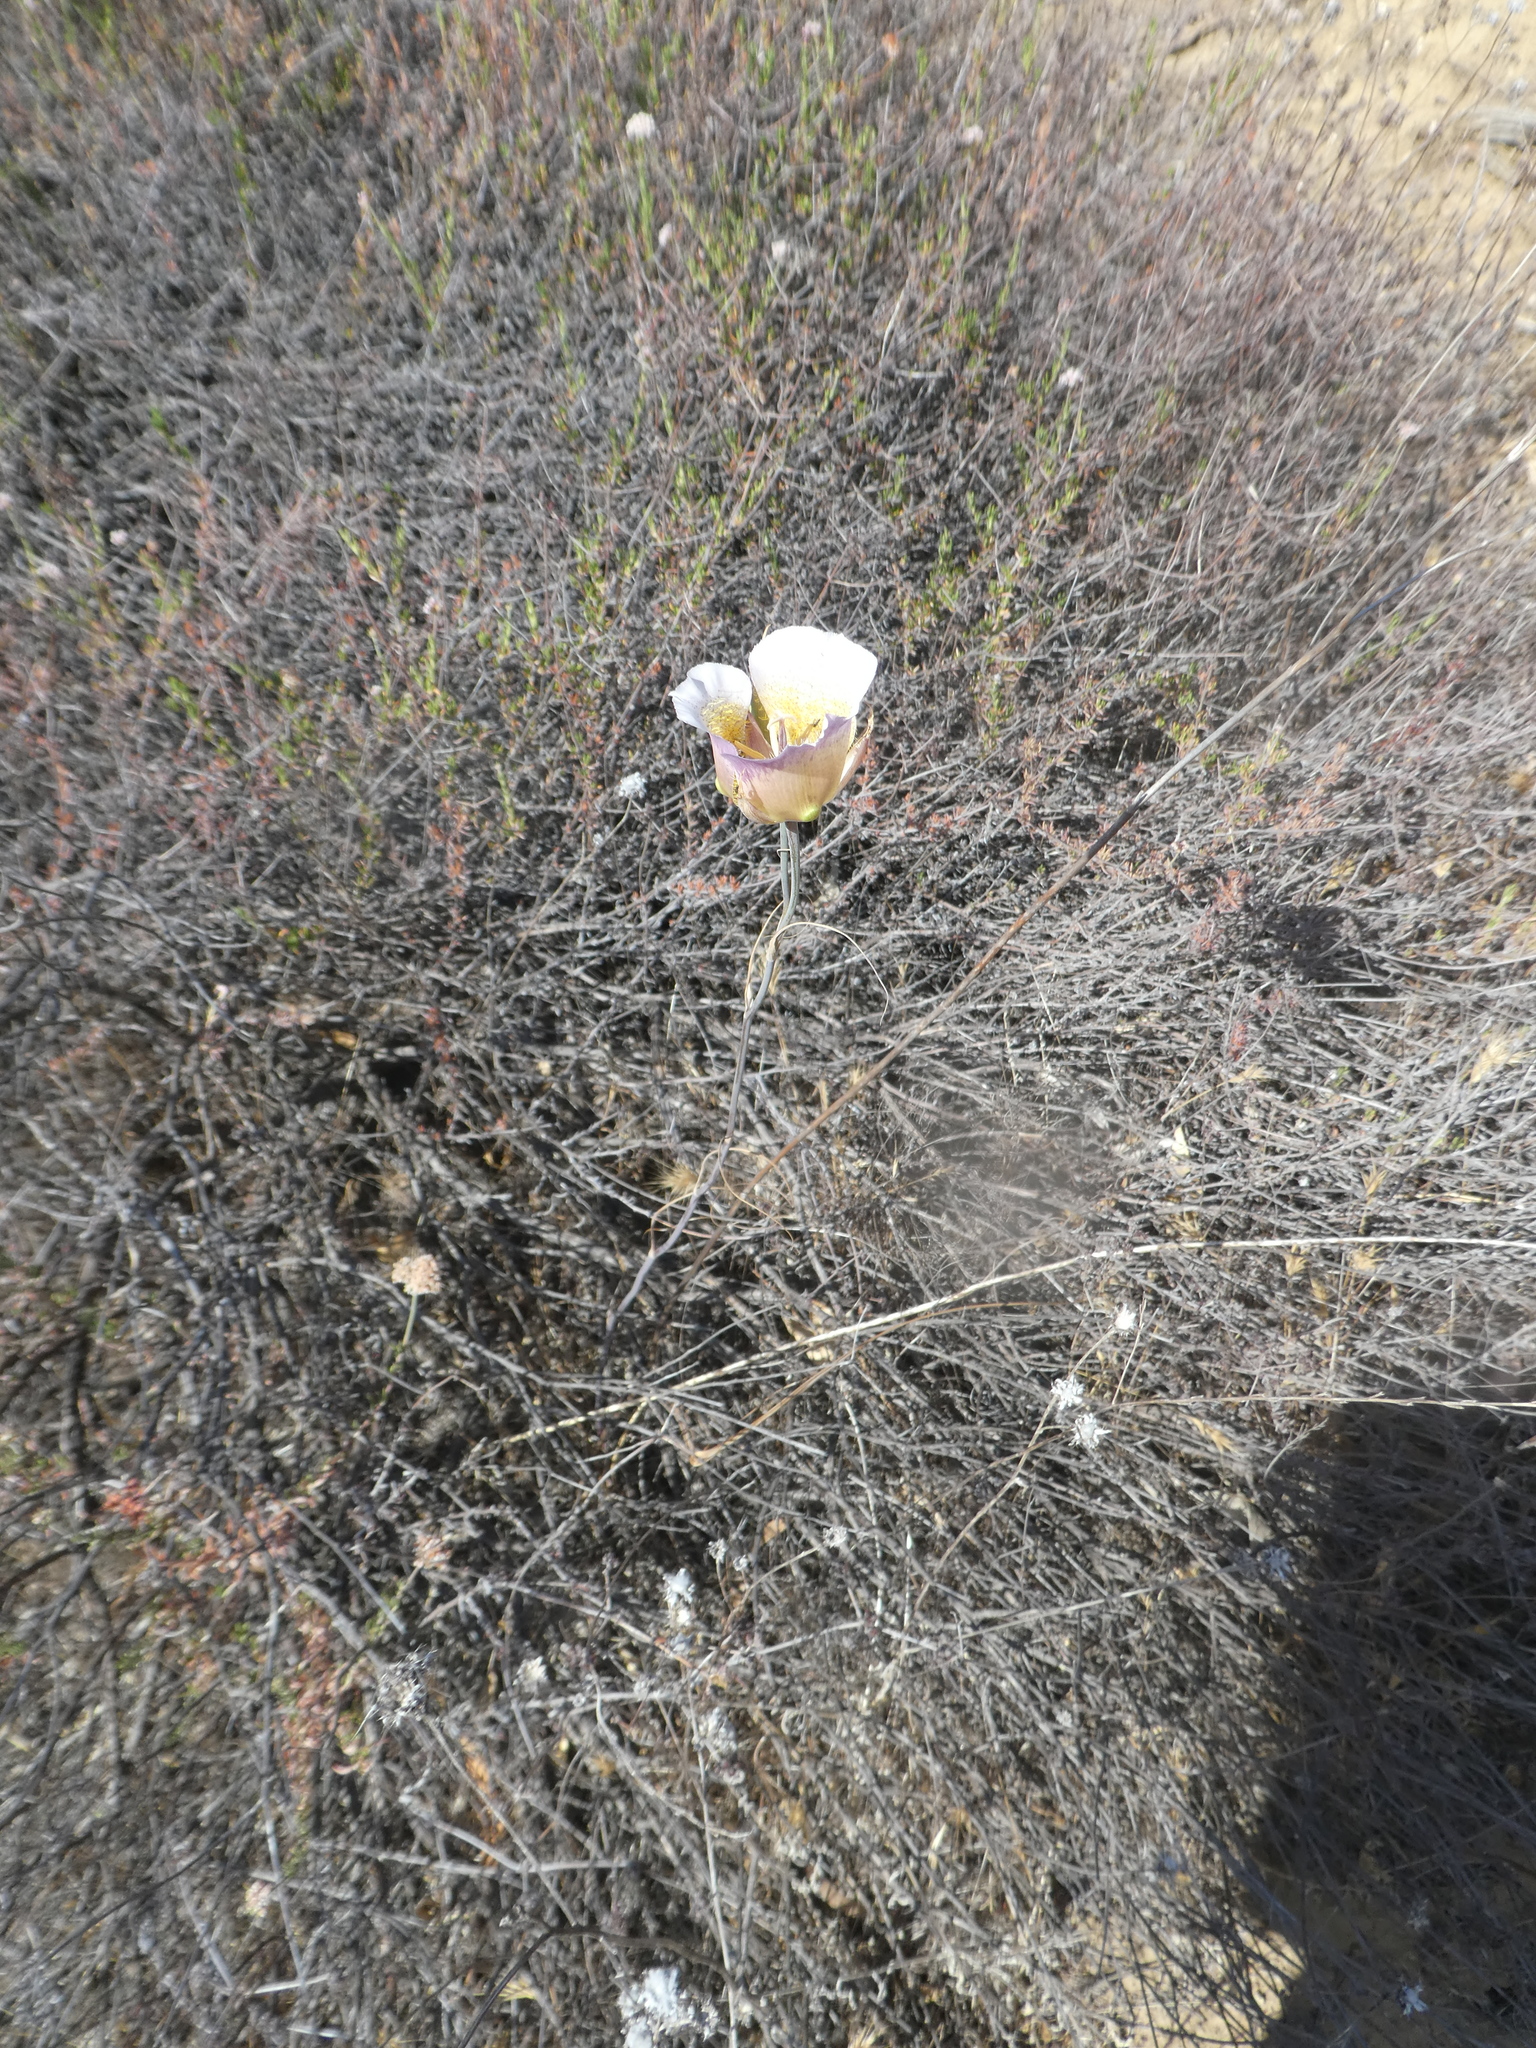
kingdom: Plantae
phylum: Tracheophyta
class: Liliopsida
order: Liliales
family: Liliaceae
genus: Calochortus
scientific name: Calochortus plummerae
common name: Plummer's mariposa-lily
